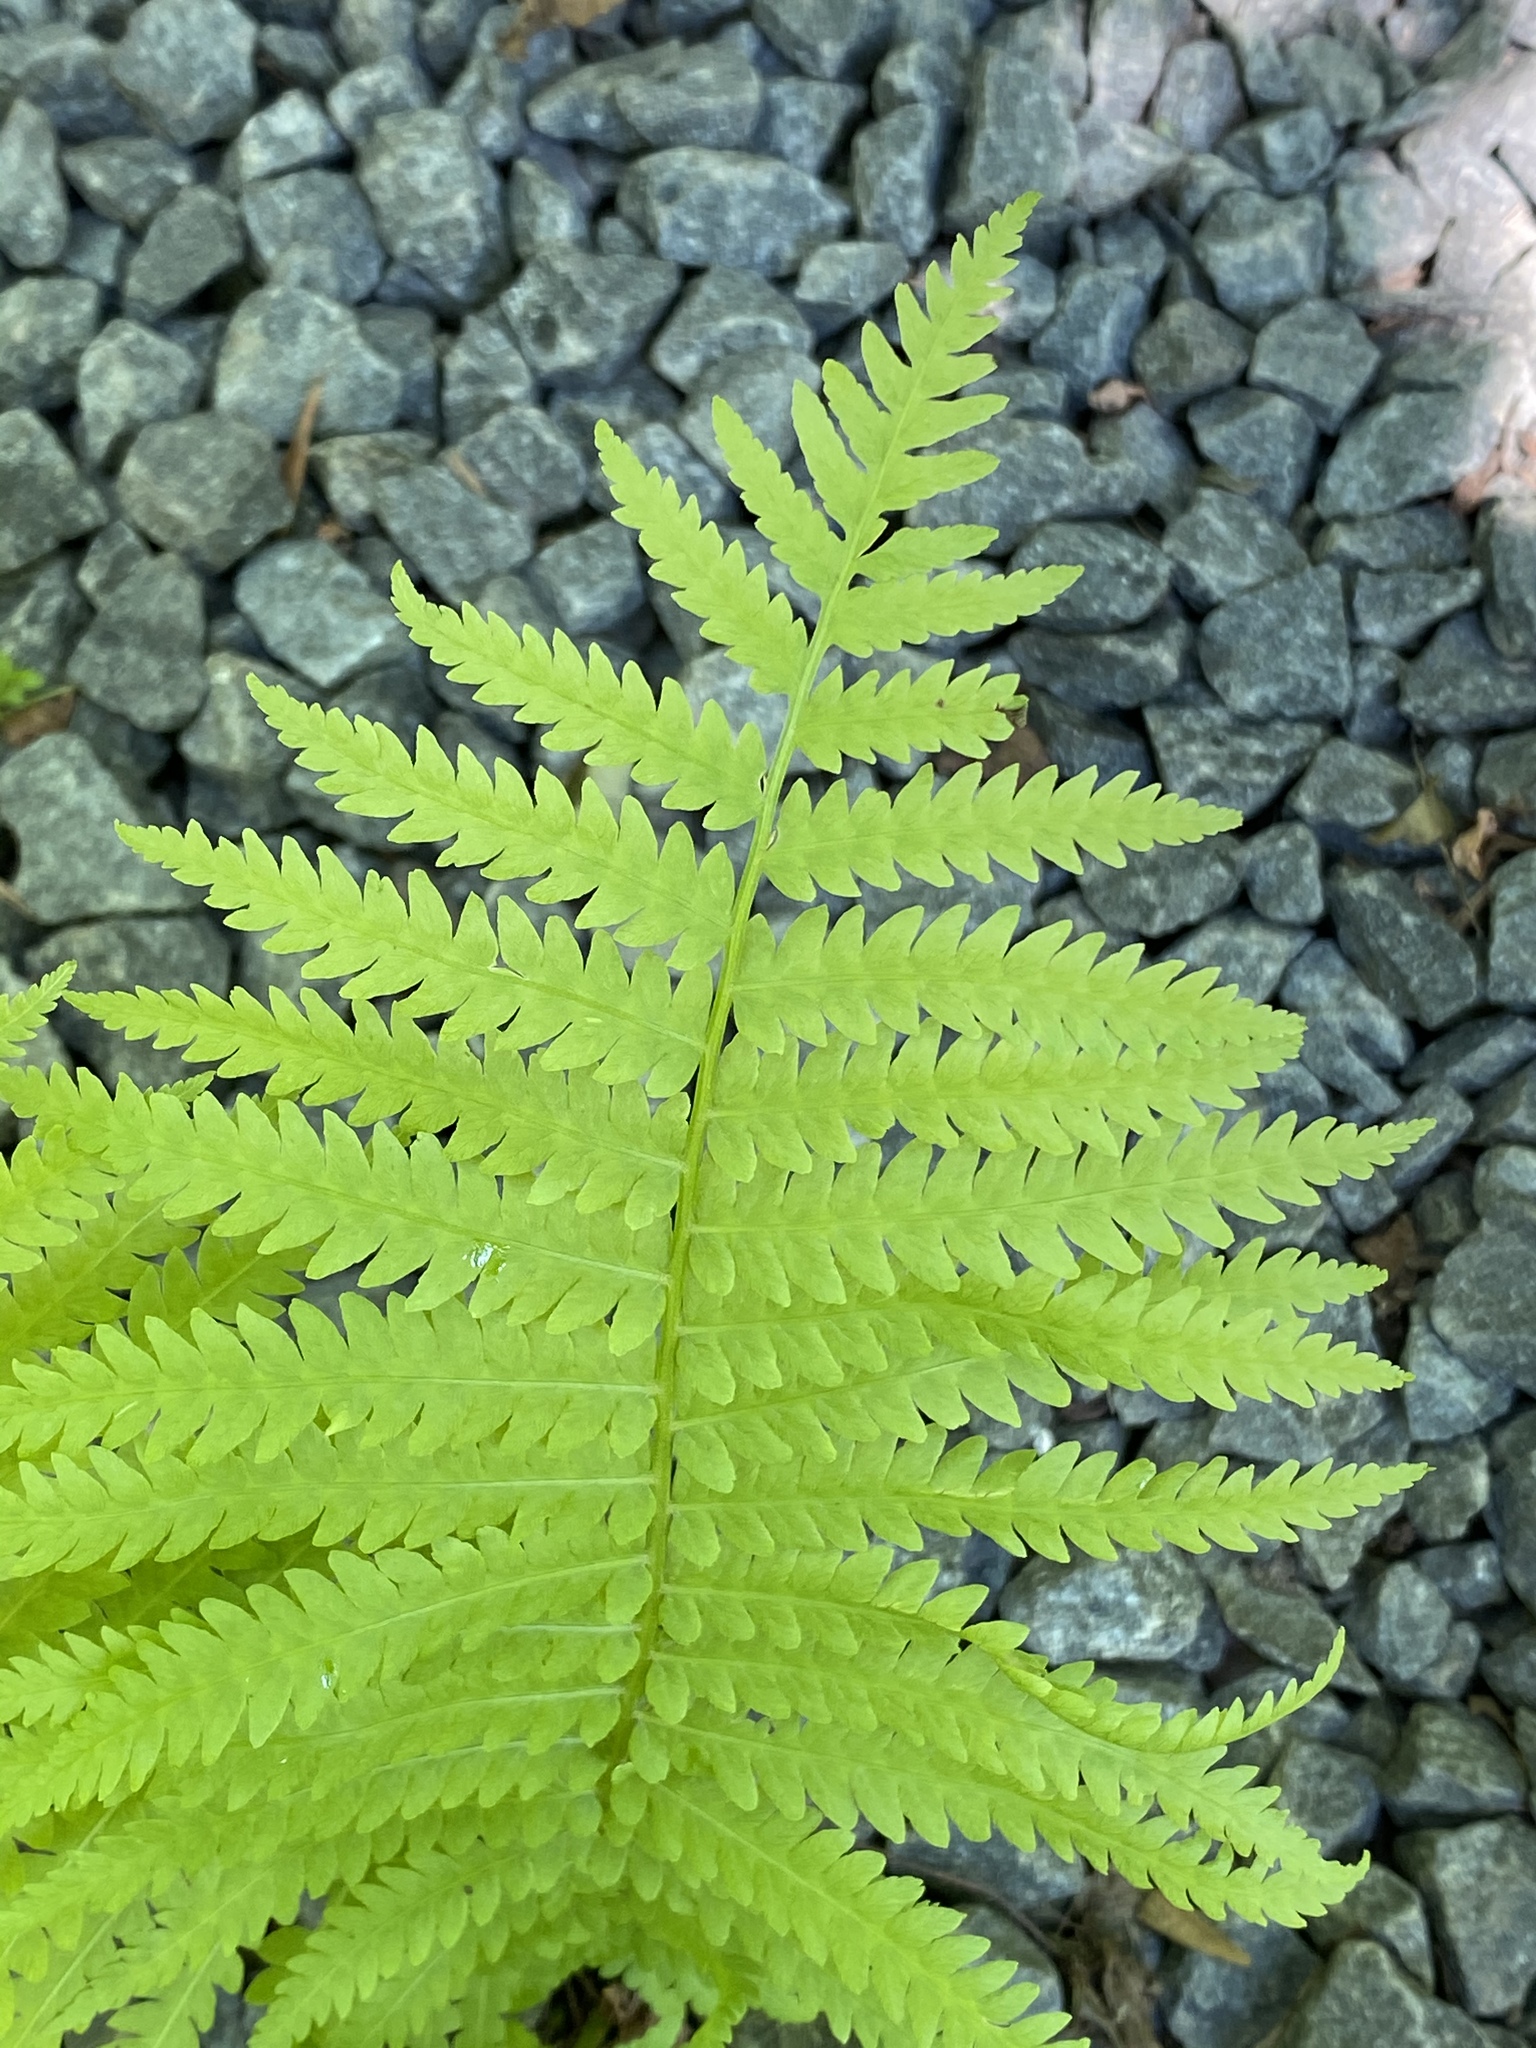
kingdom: Plantae
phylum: Tracheophyta
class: Polypodiopsida
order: Polypodiales
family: Thelypteridaceae
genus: Amauropelta
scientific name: Amauropelta noveboracensis
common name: New york fern
